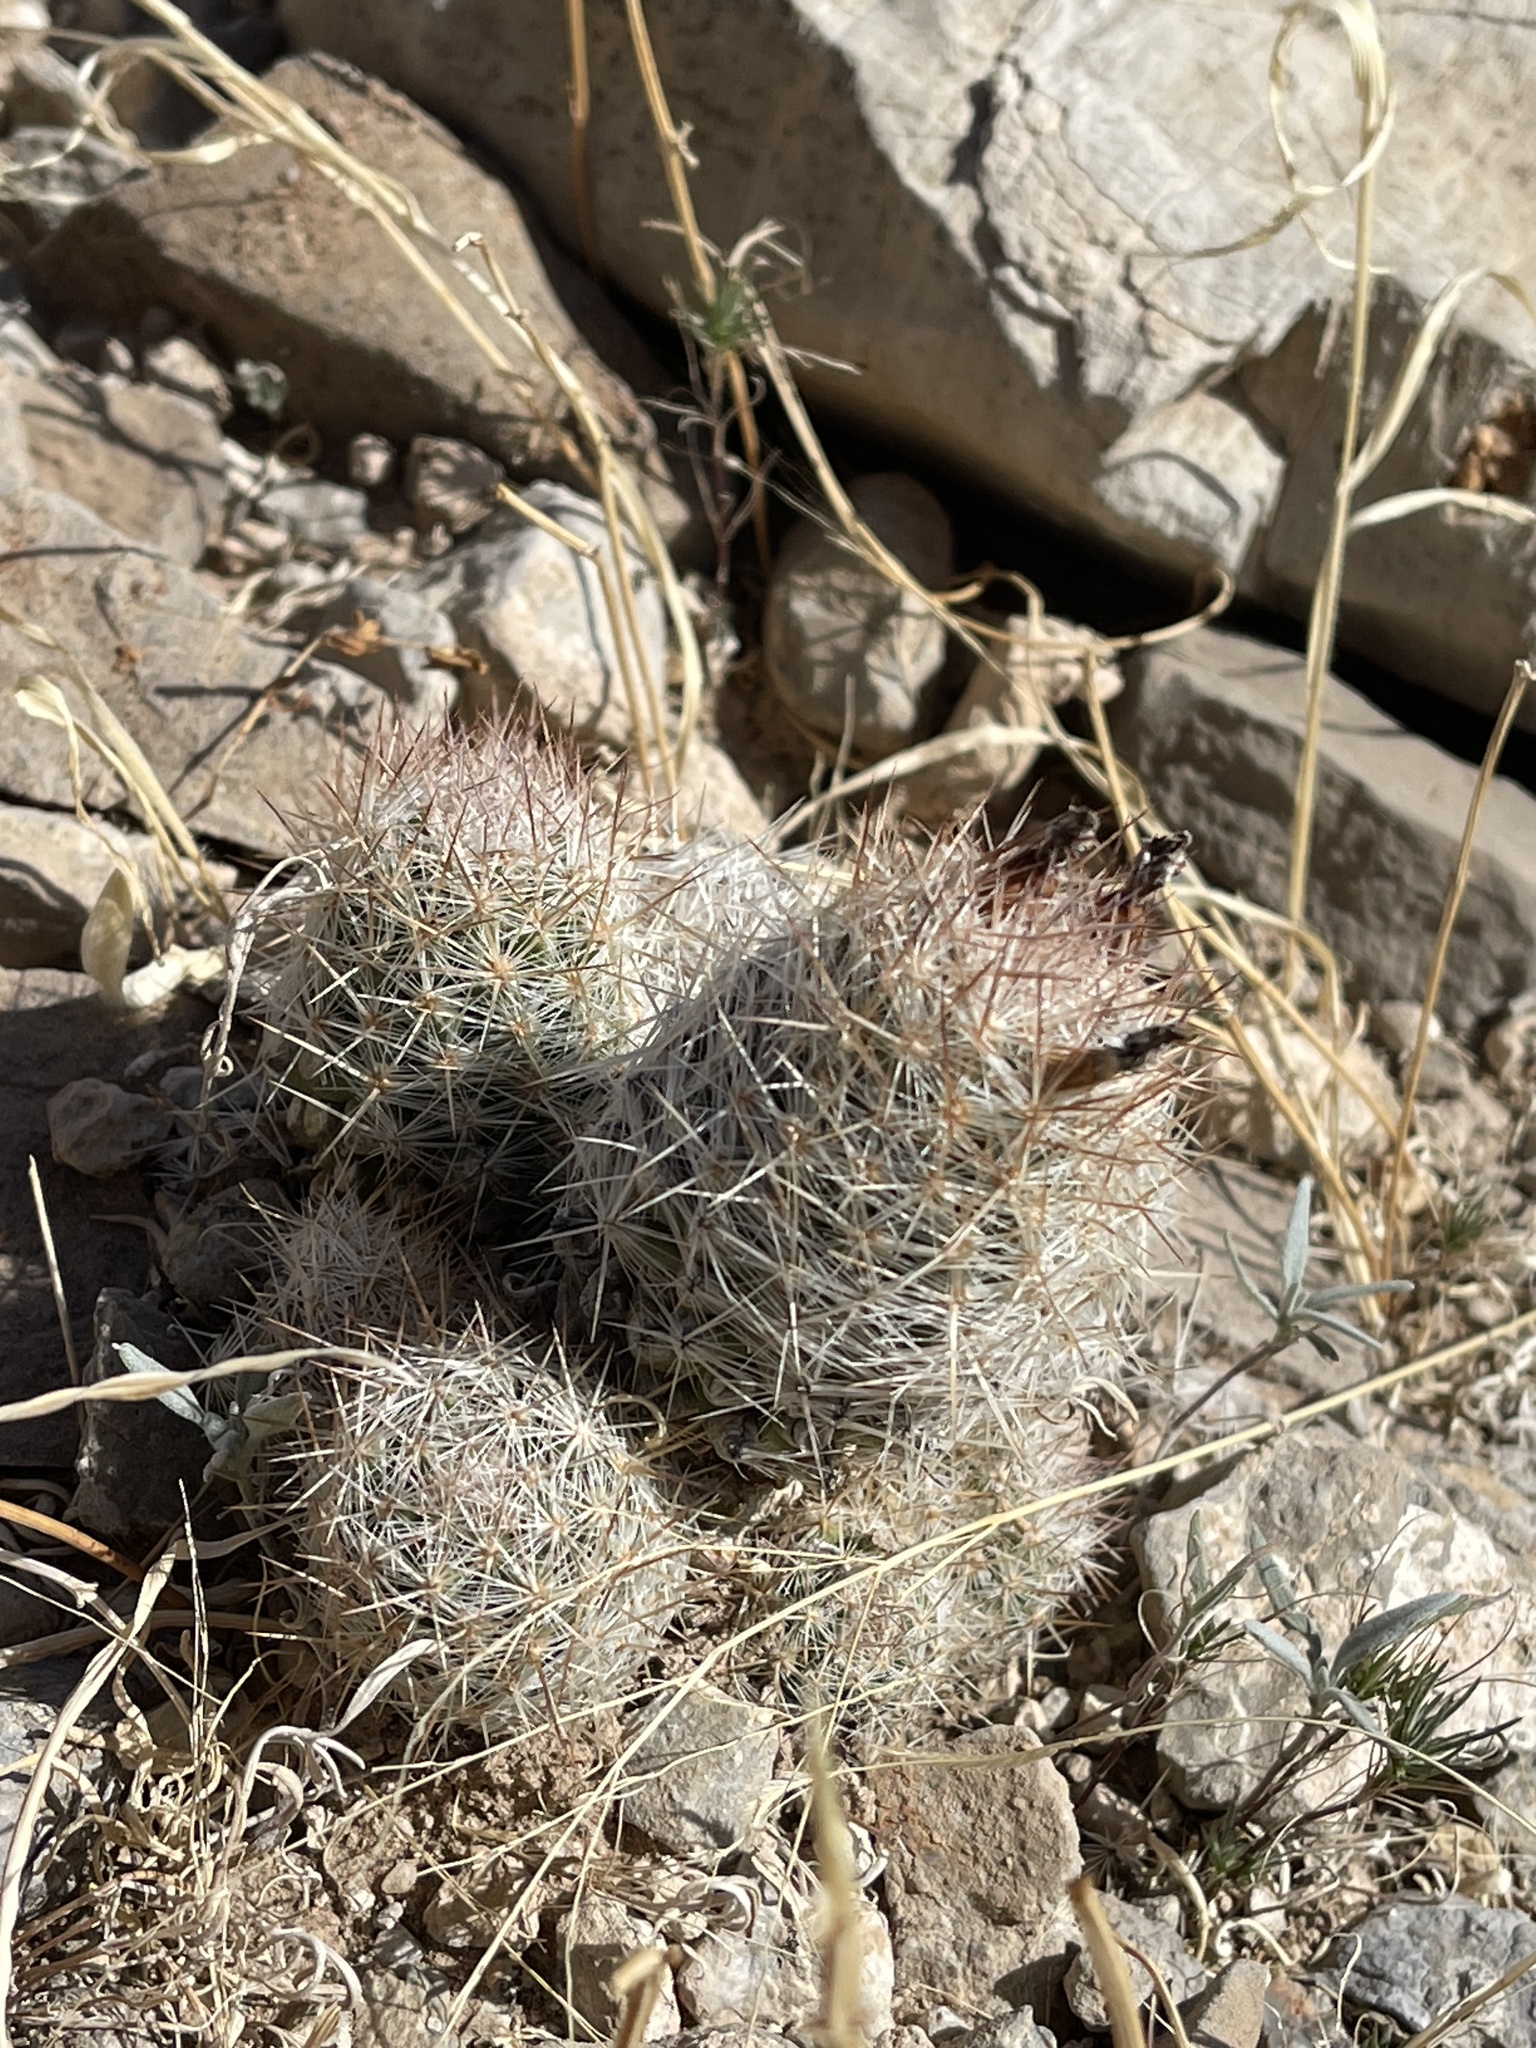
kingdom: Plantae
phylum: Tracheophyta
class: Magnoliopsida
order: Caryophyllales
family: Cactaceae
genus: Pelecyphora
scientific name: Pelecyphora tuberculosa
